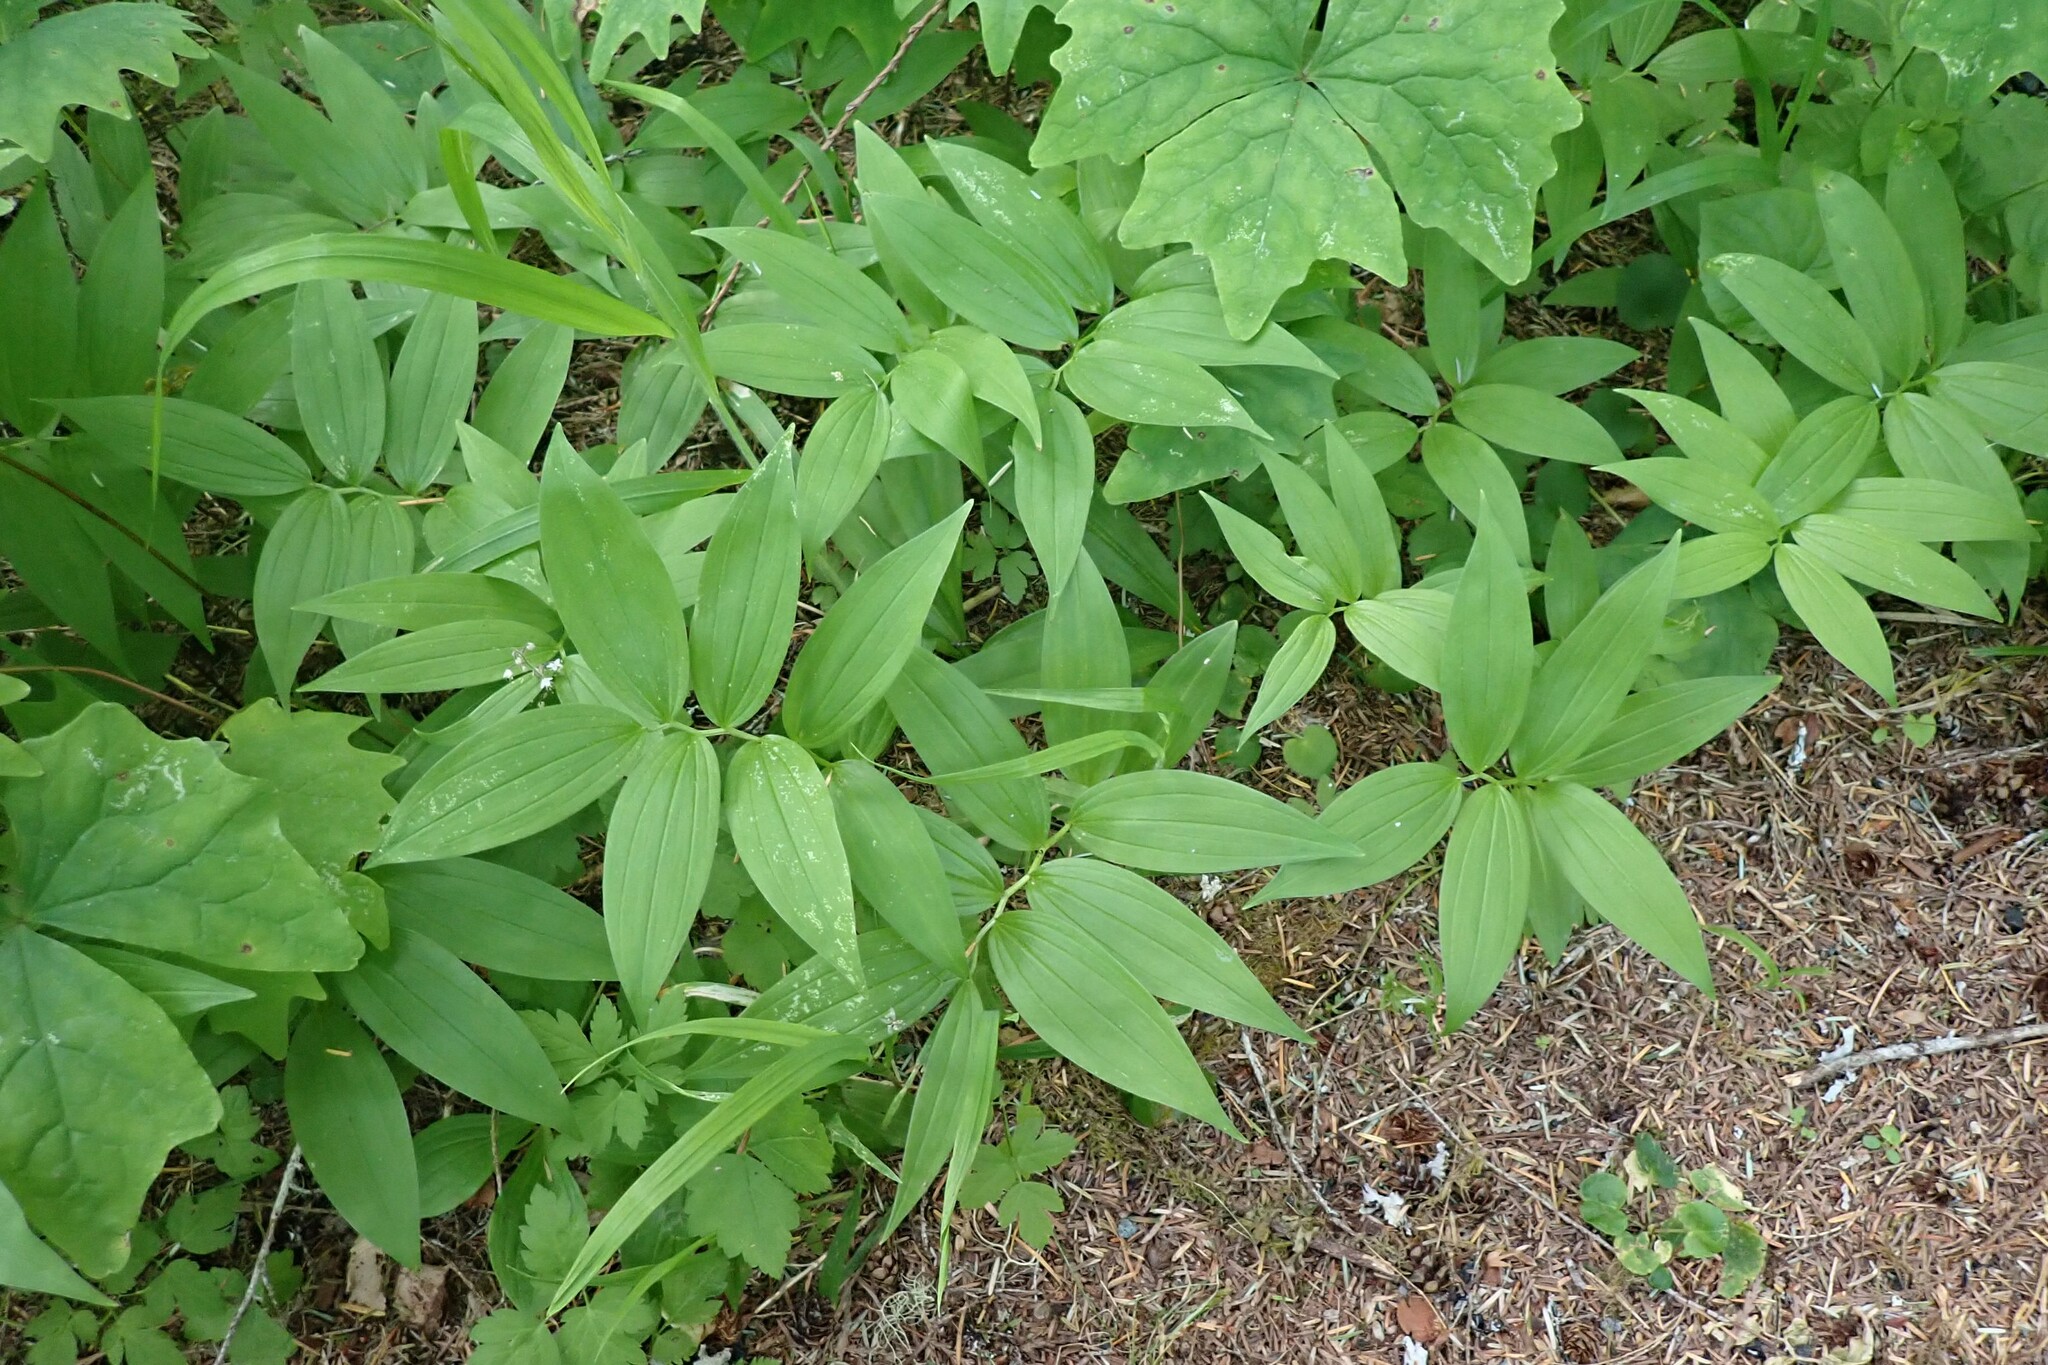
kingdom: Plantae
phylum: Tracheophyta
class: Liliopsida
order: Asparagales
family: Asparagaceae
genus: Maianthemum
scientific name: Maianthemum stellatum
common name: Little false solomon's seal
